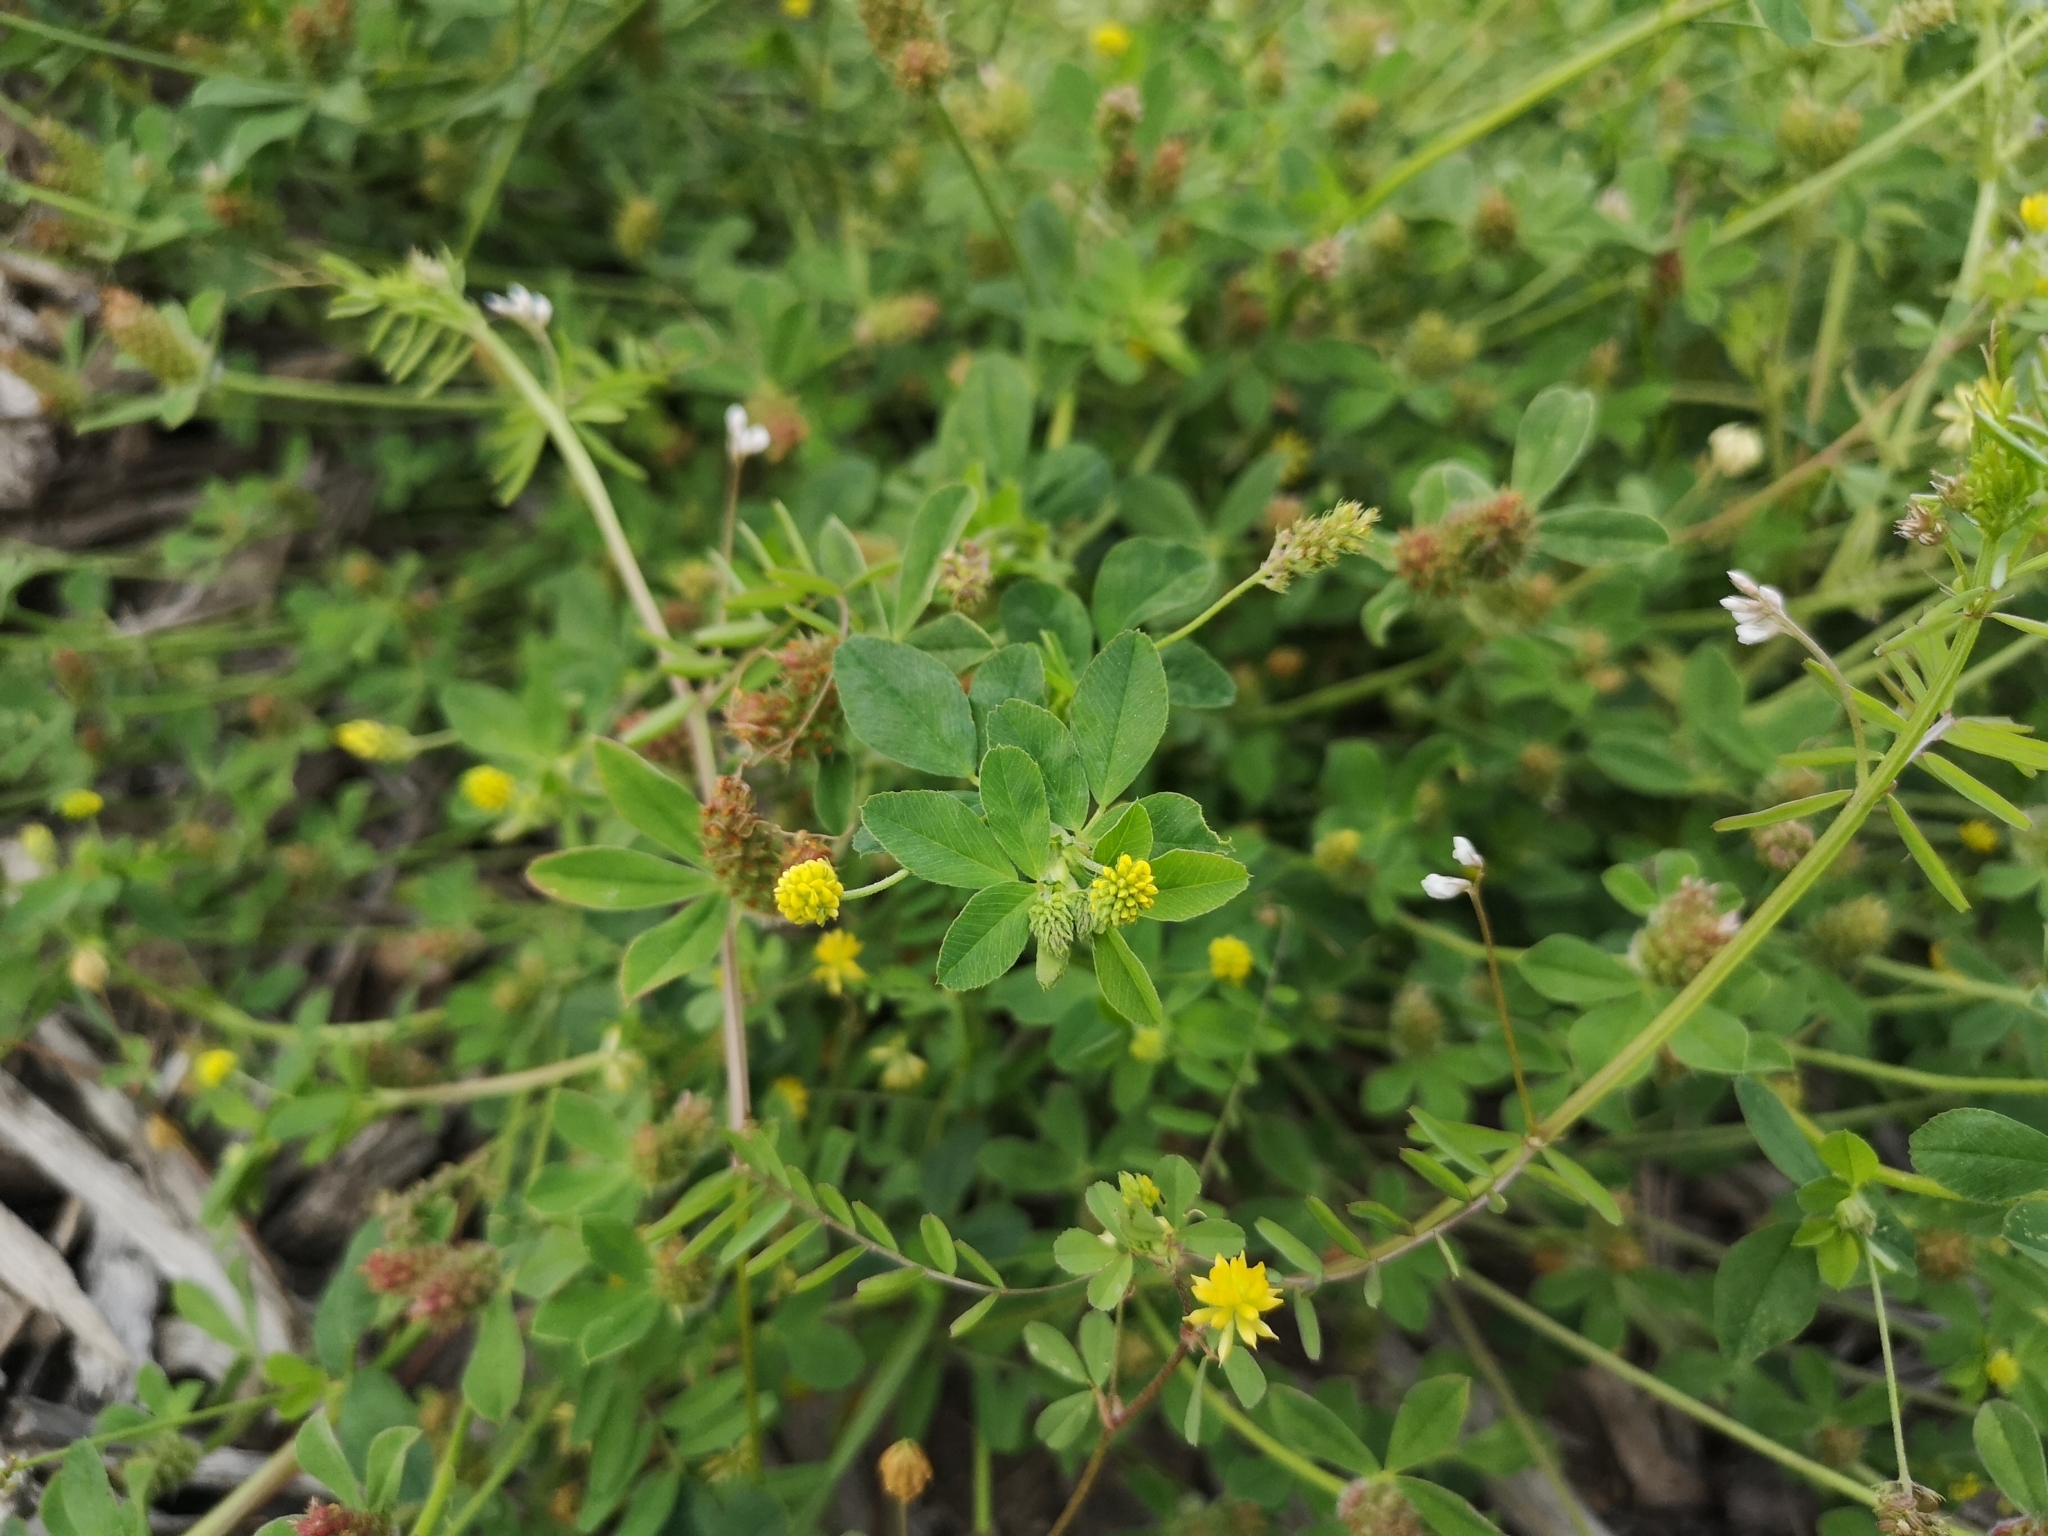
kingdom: Plantae
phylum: Tracheophyta
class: Magnoliopsida
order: Fabales
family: Fabaceae
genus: Medicago
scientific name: Medicago lupulina
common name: Black medick
